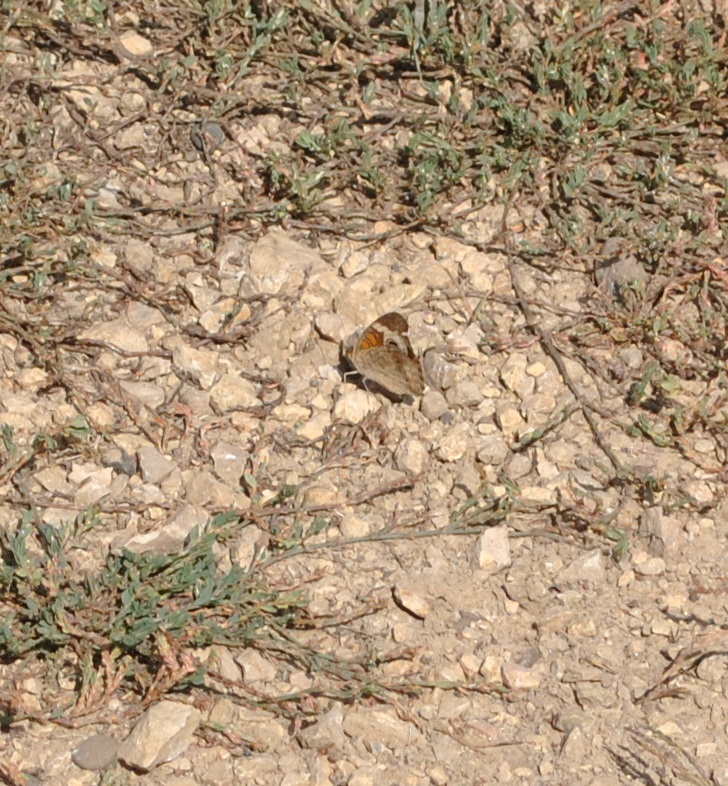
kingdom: Animalia
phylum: Arthropoda
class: Insecta
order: Lepidoptera
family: Nymphalidae
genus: Junonia
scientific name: Junonia coenia
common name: Common buckeye
